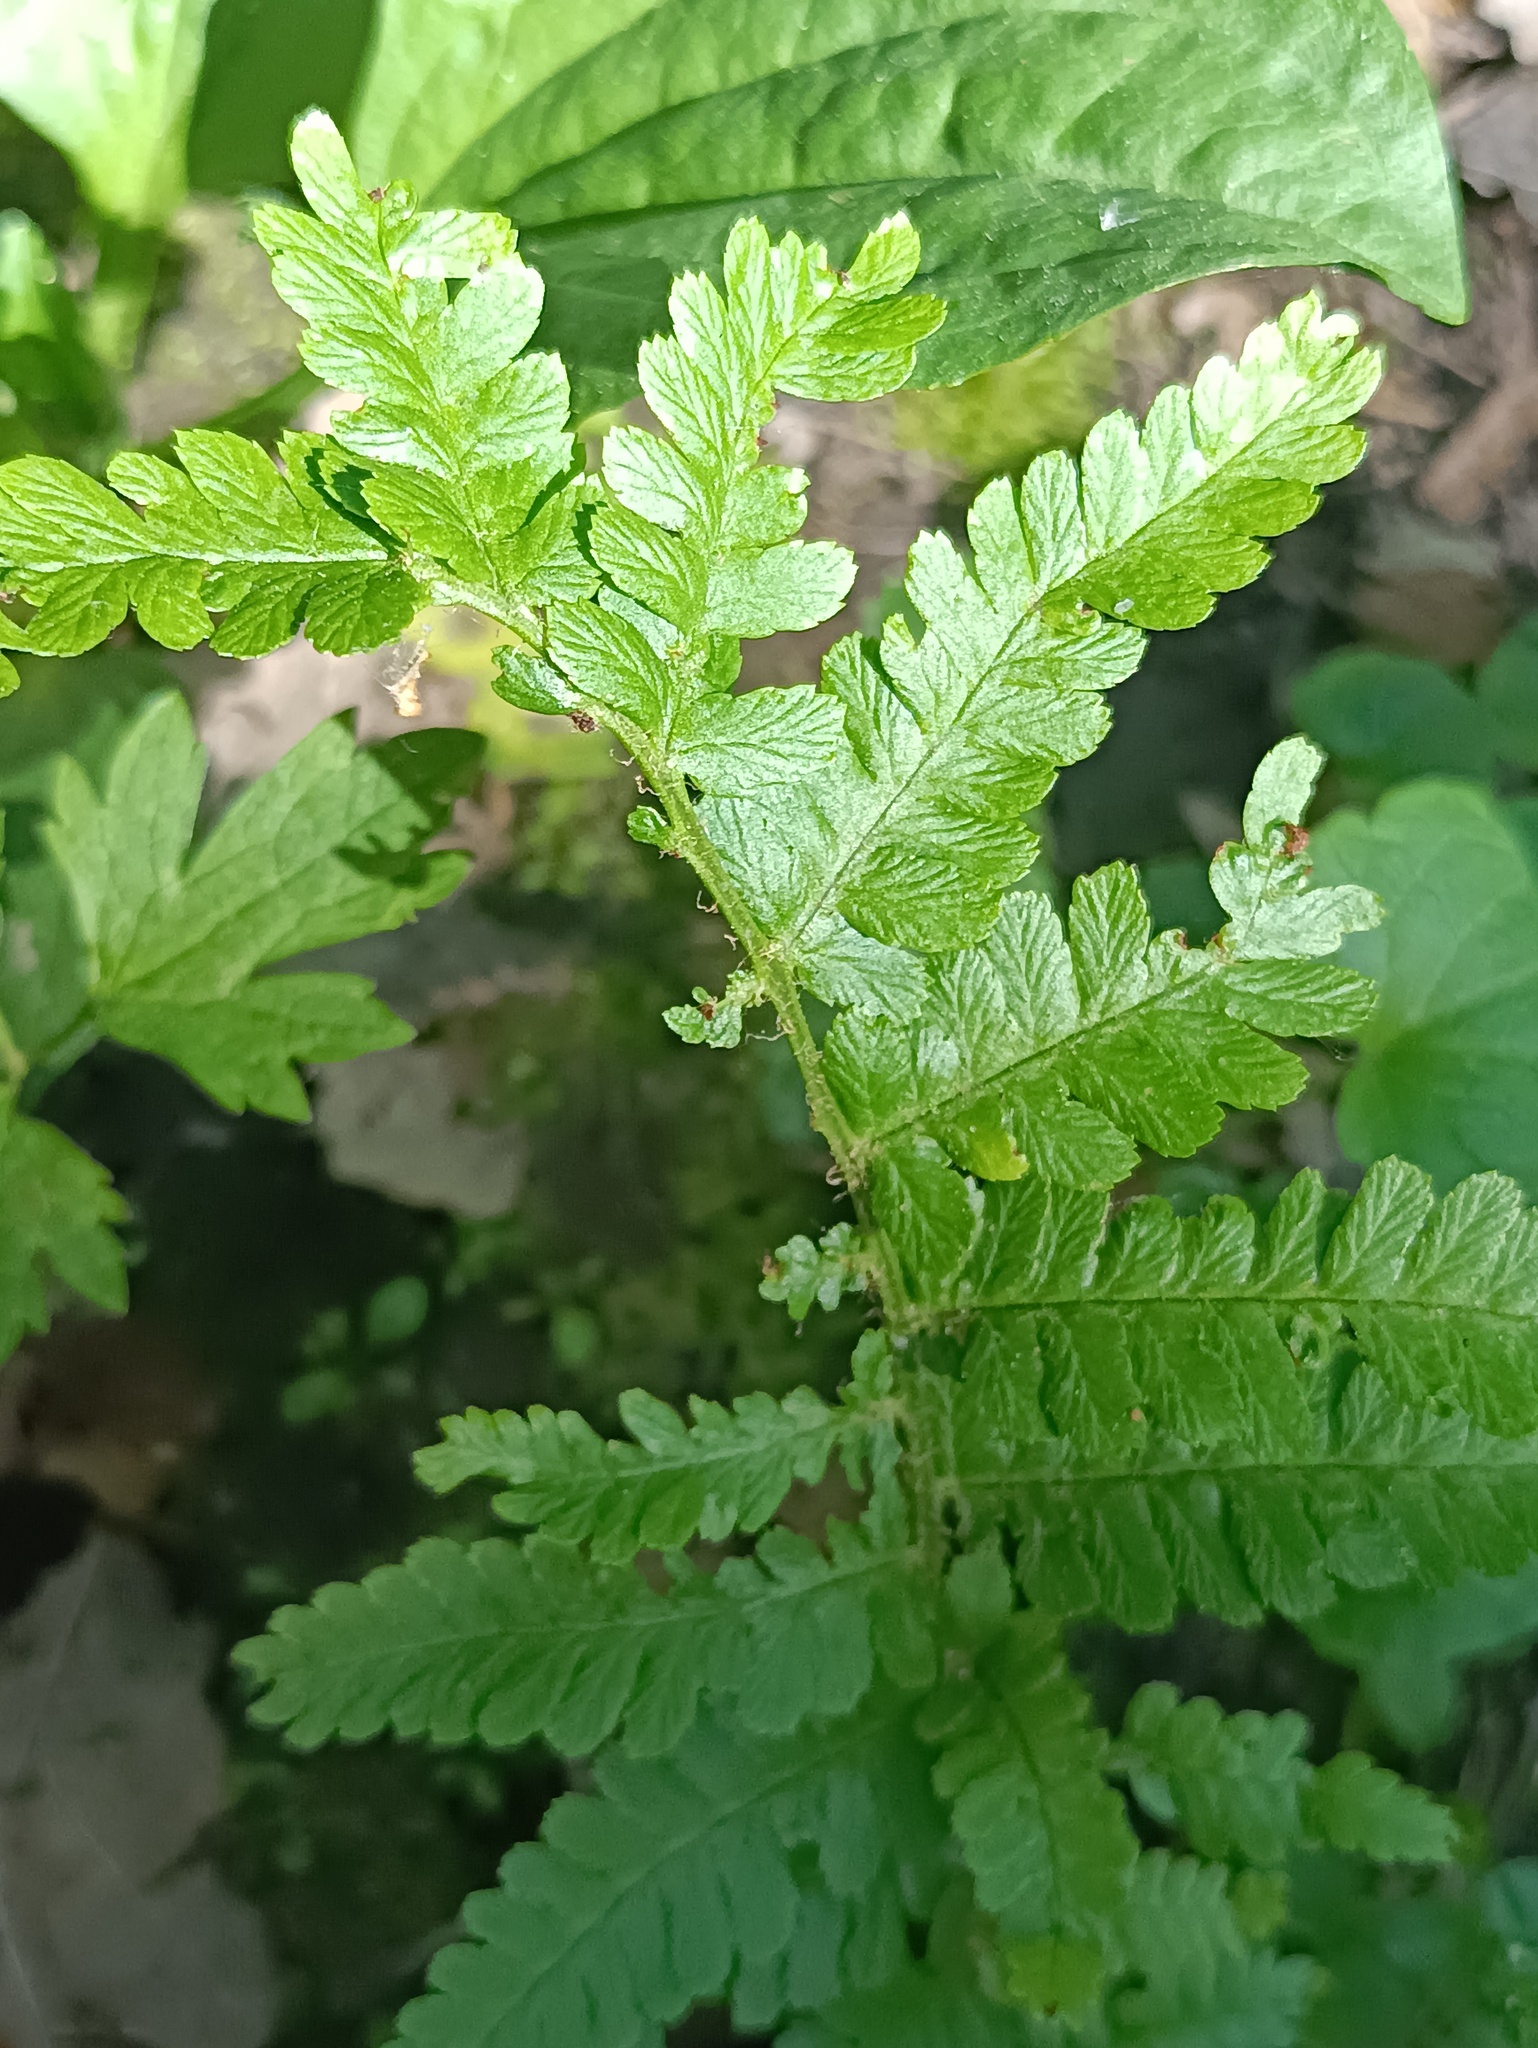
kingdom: Plantae
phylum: Tracheophyta
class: Polypodiopsida
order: Polypodiales
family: Dryopteridaceae
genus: Dryopteris
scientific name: Dryopteris filix-mas
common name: Male fern
